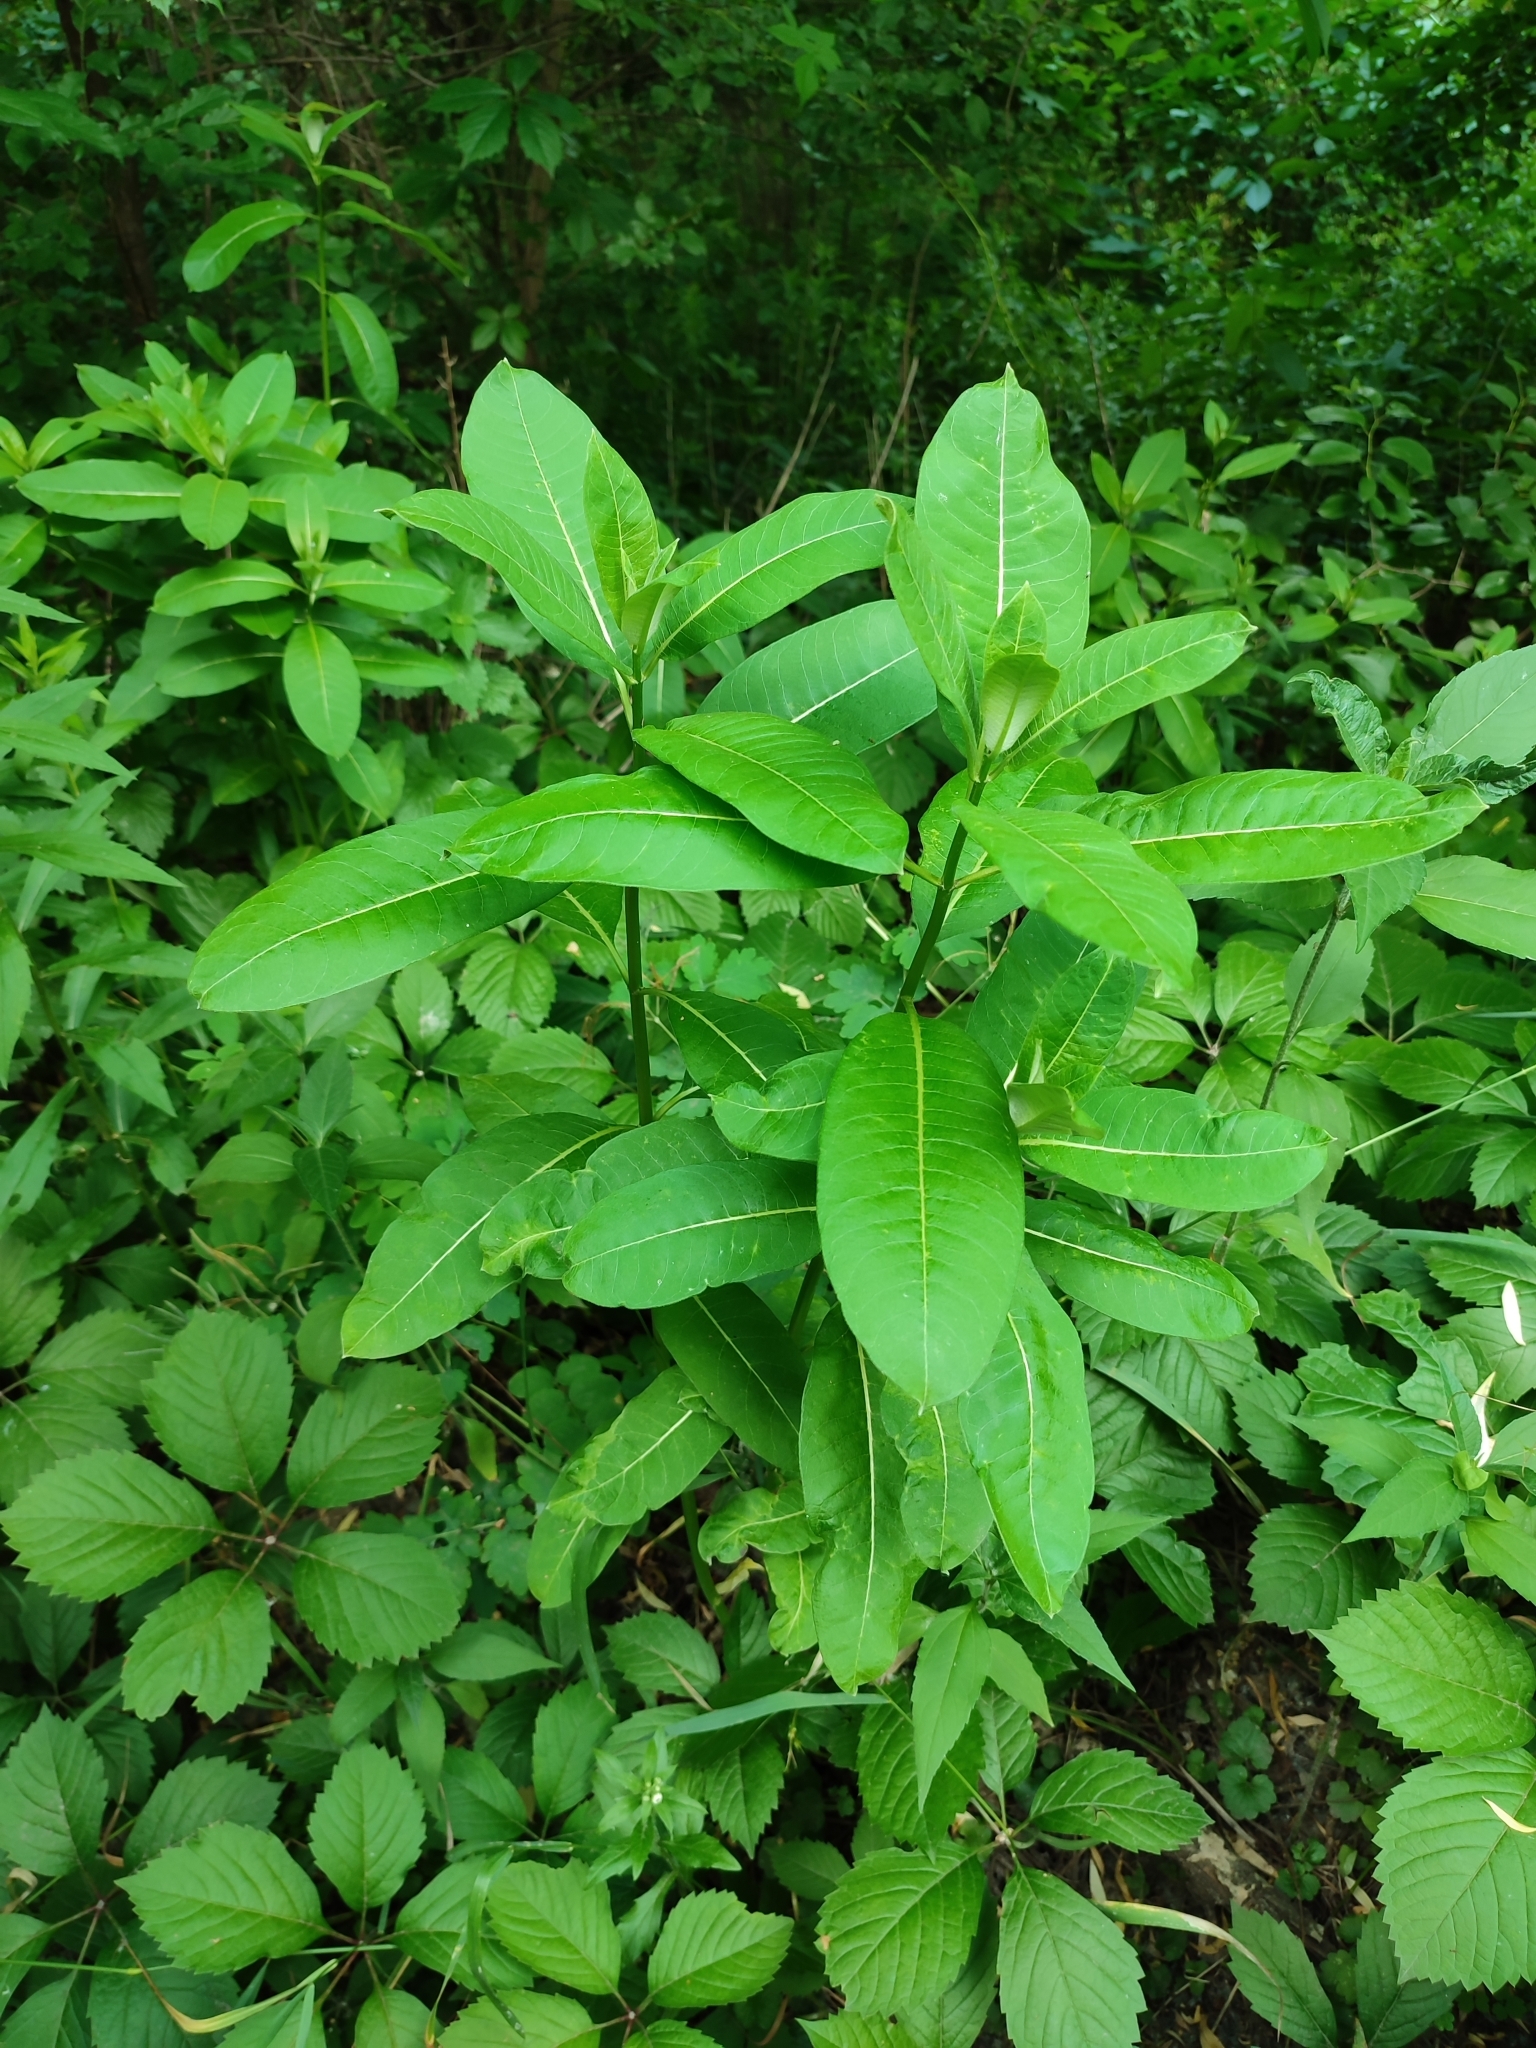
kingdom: Plantae
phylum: Tracheophyta
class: Magnoliopsida
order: Gentianales
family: Apocynaceae
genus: Asclepias
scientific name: Asclepias syriaca
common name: Common milkweed
